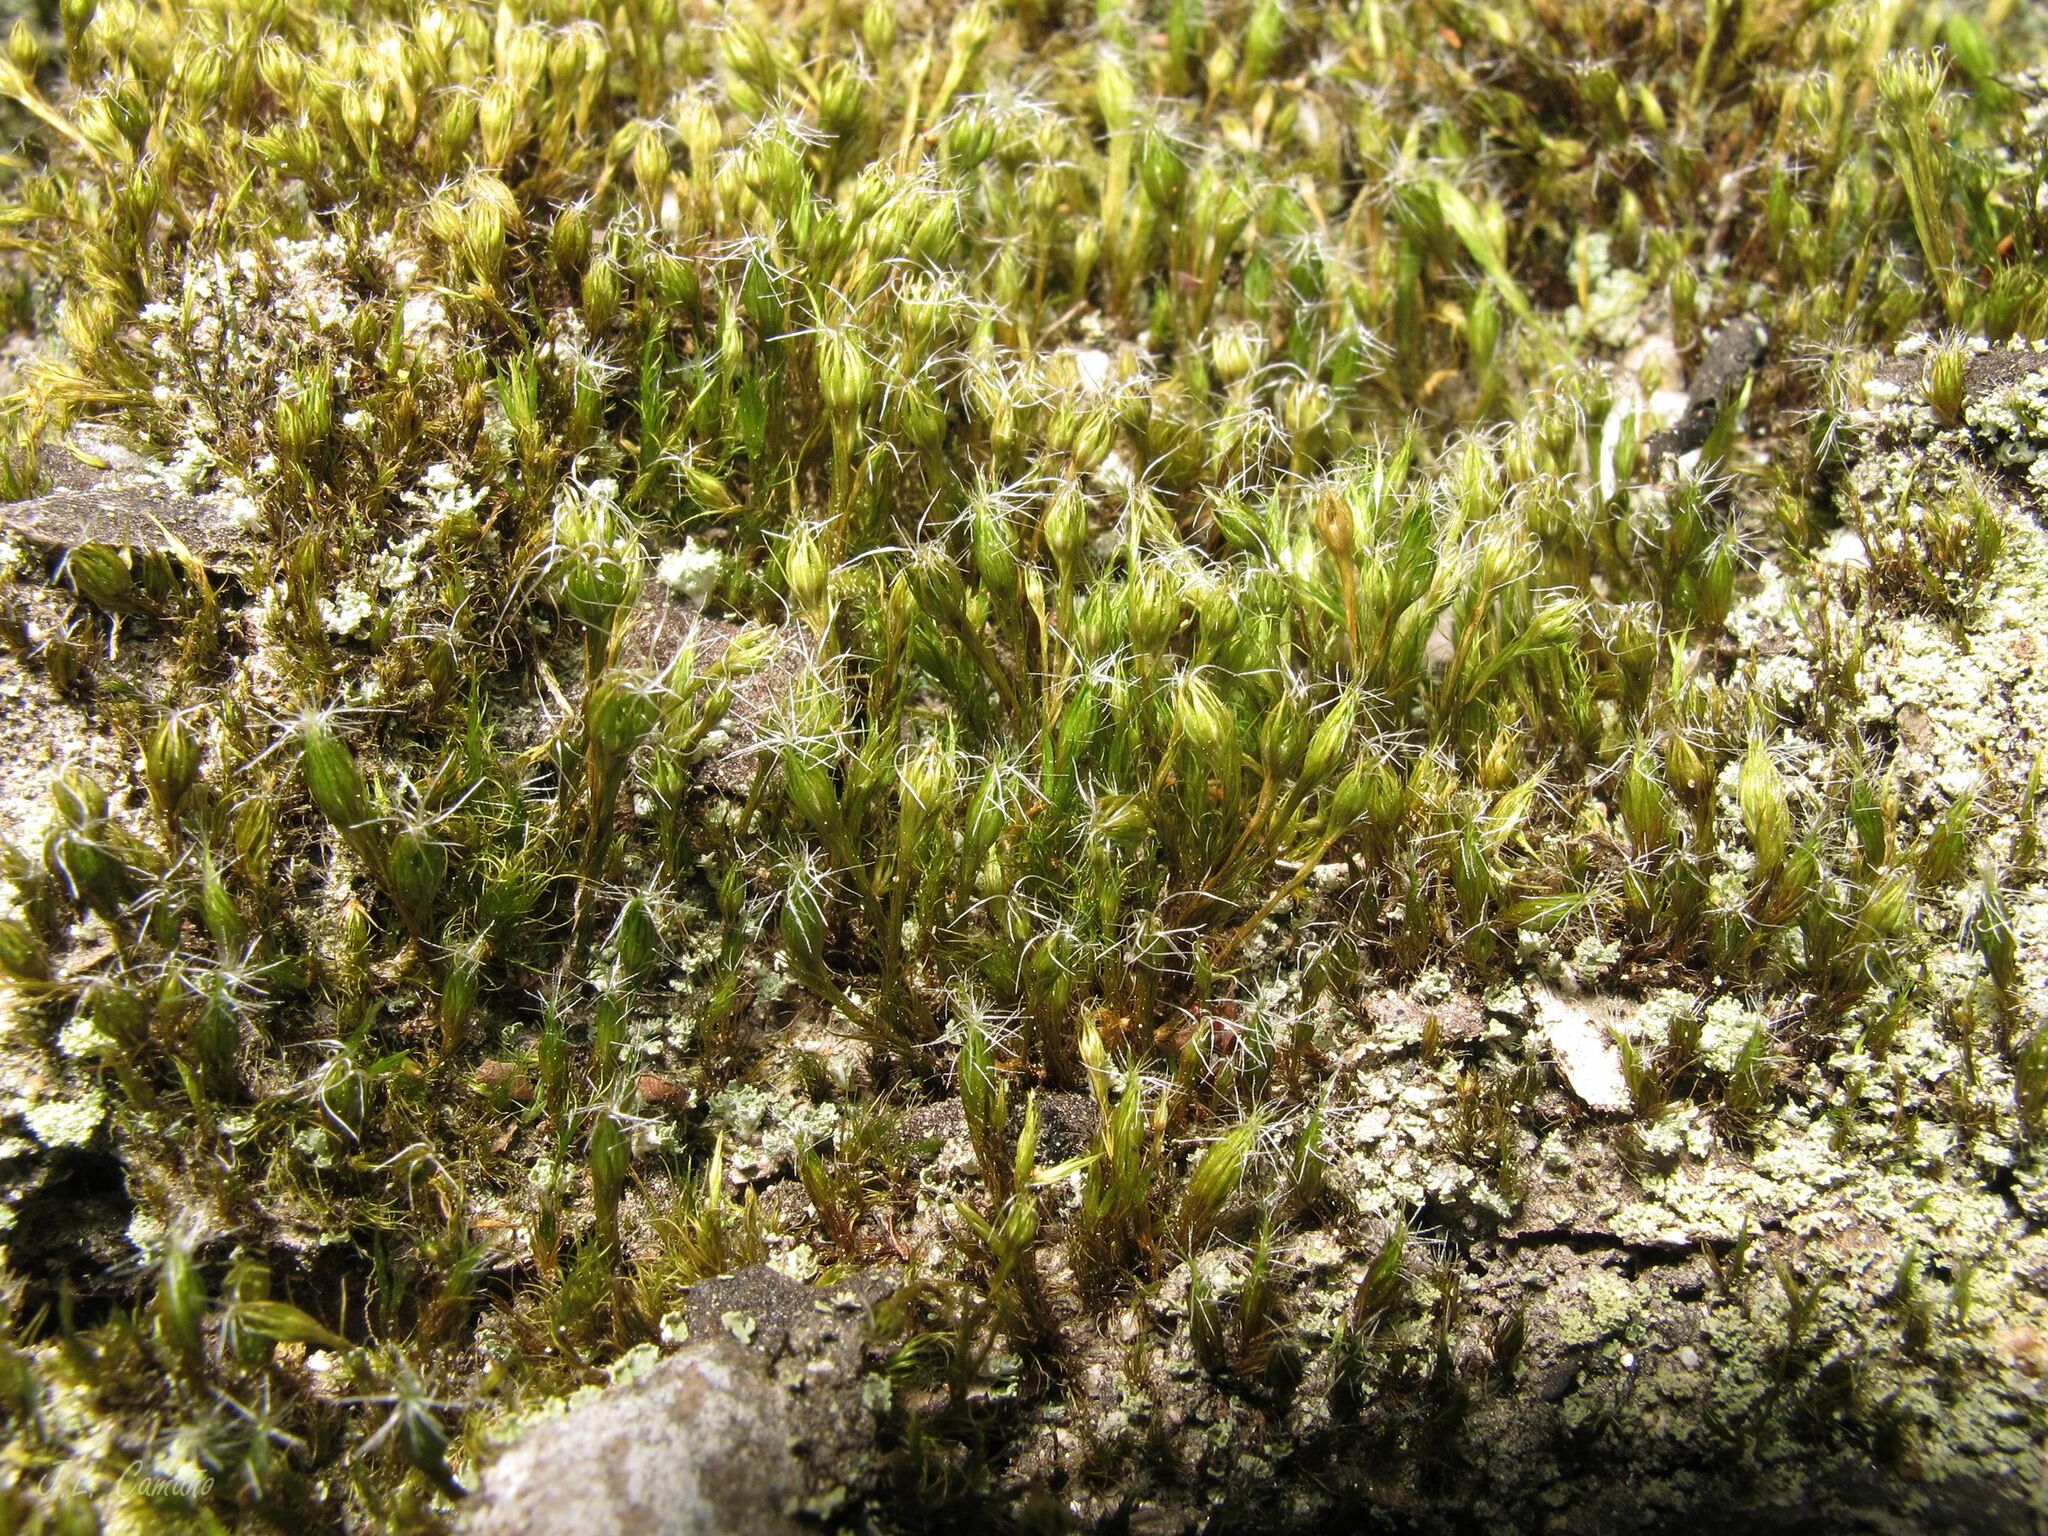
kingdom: Plantae
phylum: Bryophyta
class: Bryopsida
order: Dicranales
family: Leucobryaceae
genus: Campylopus
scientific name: Campylopus introflexus
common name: Heath star moss
